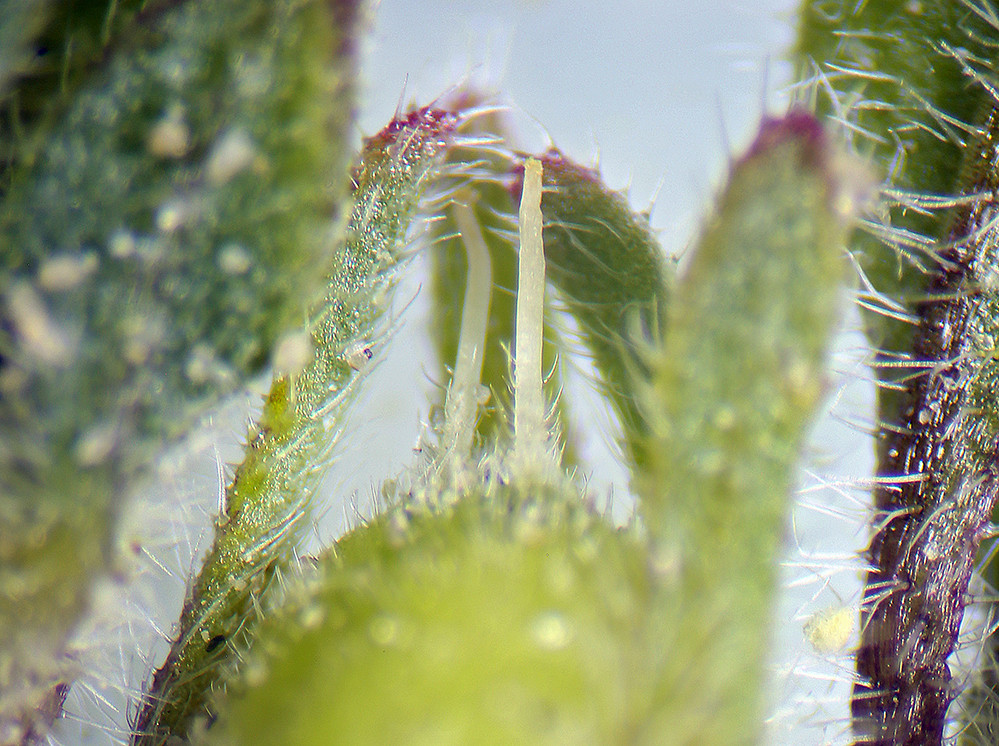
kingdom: Plantae
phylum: Tracheophyta
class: Magnoliopsida
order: Boraginales
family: Namaceae
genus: Nama
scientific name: Nama pusilla
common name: Eggleaf nama
